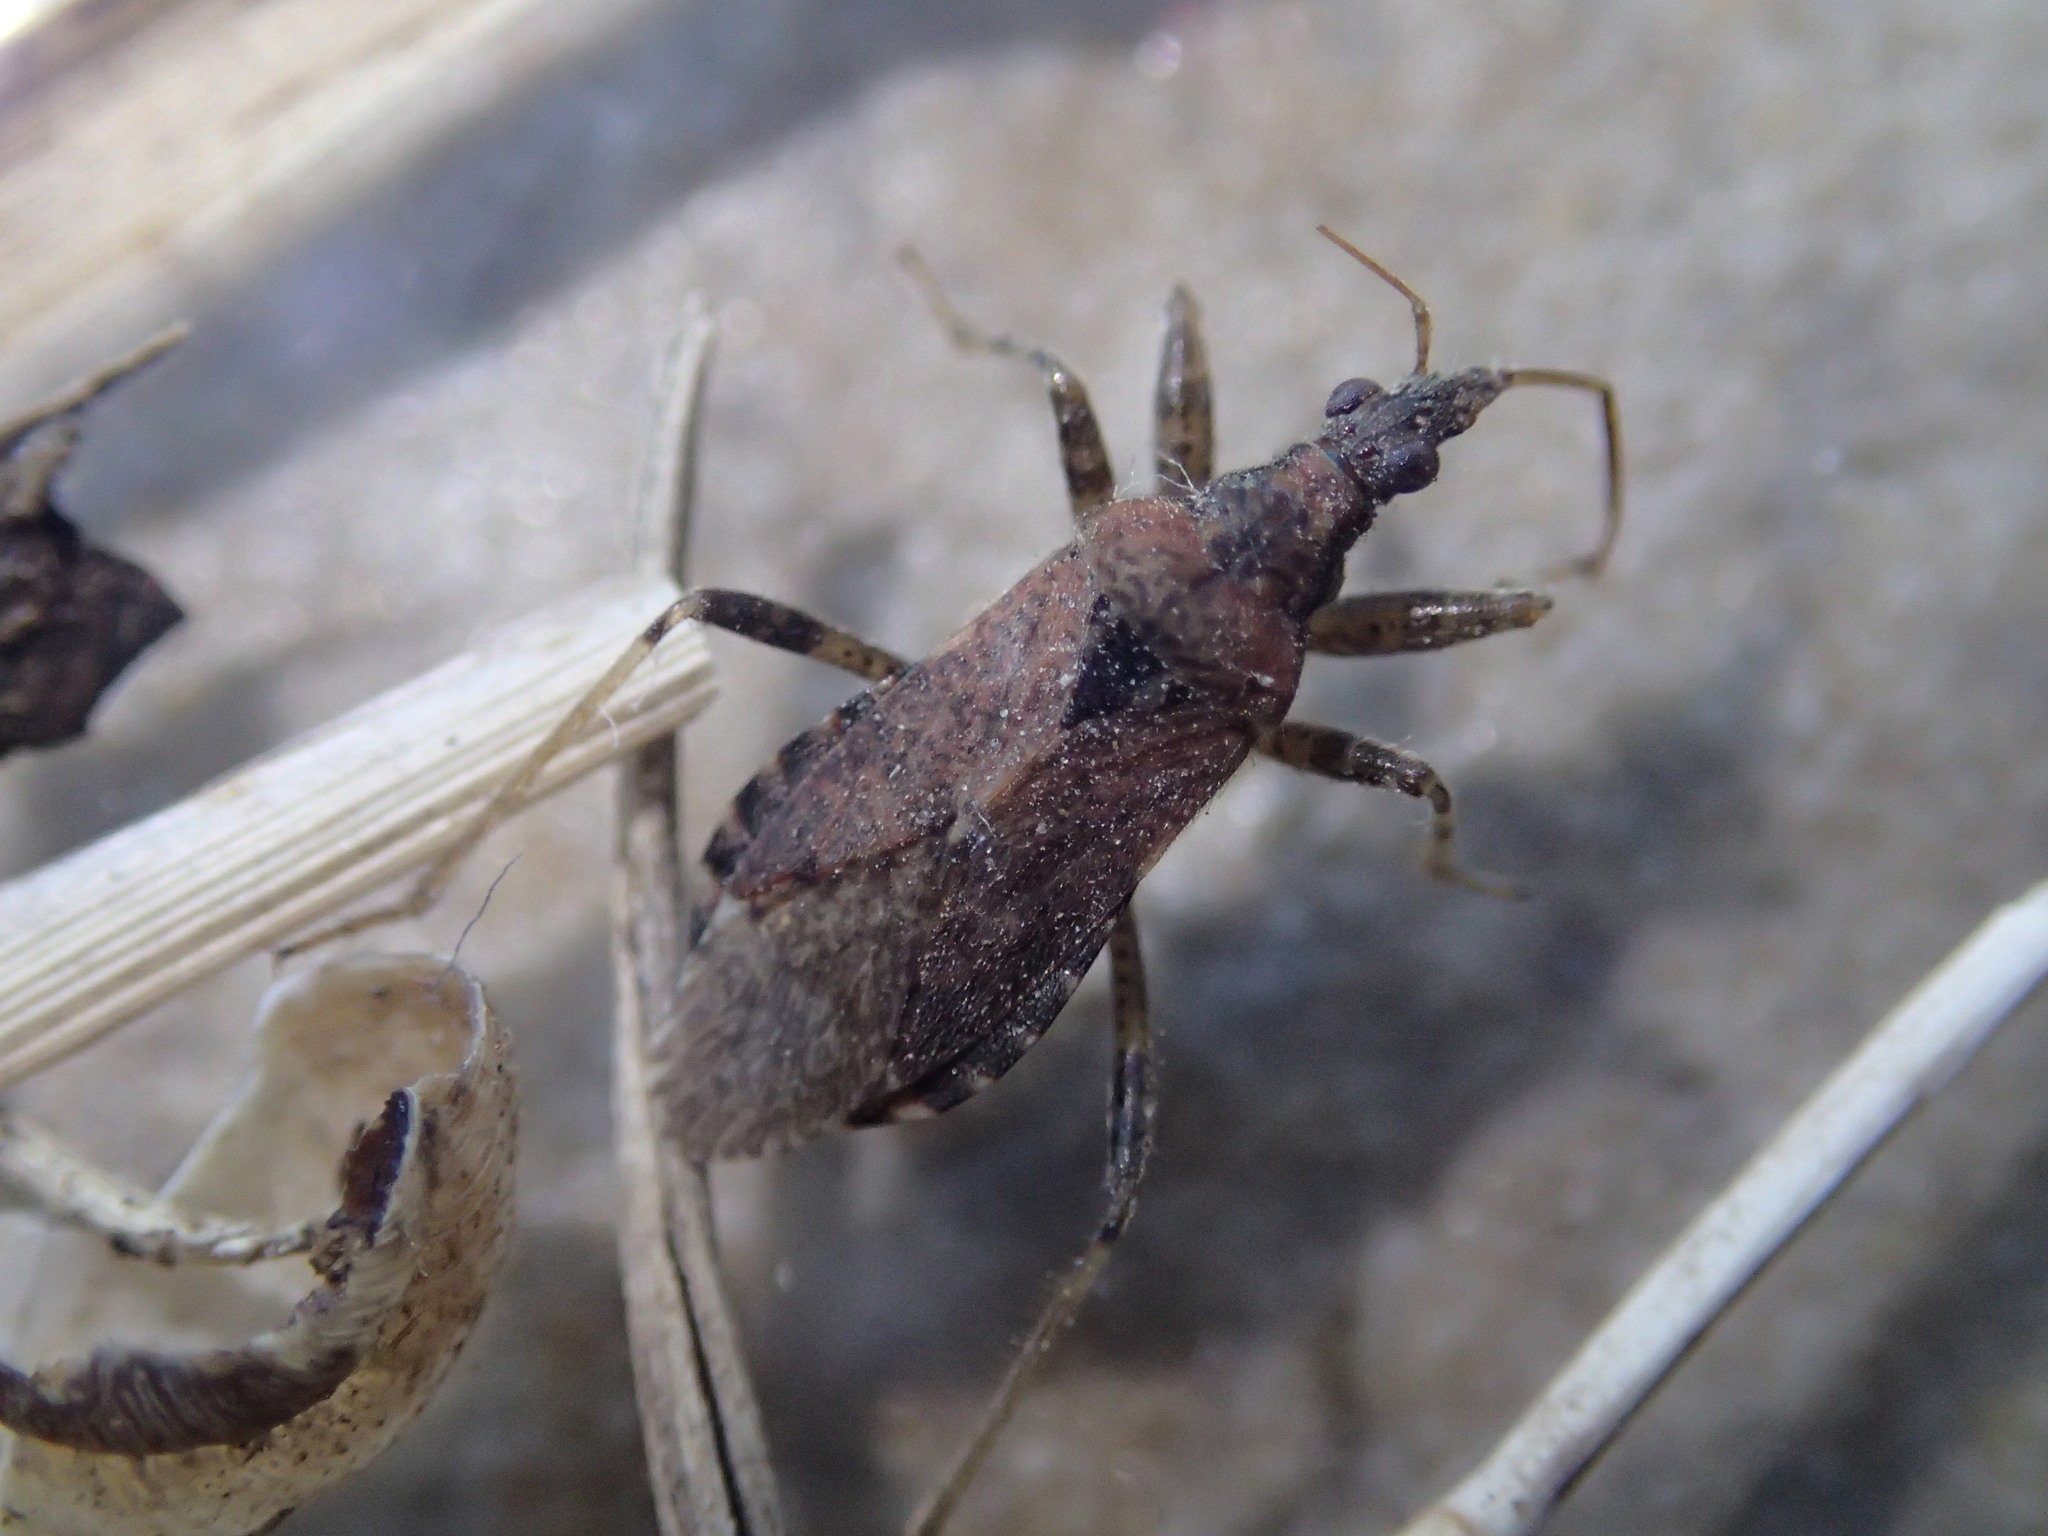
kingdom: Animalia
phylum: Arthropoda
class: Insecta
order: Hemiptera
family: Nabidae
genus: Himacerus
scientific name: Himacerus mirmicoides
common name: Ant damsel bug
